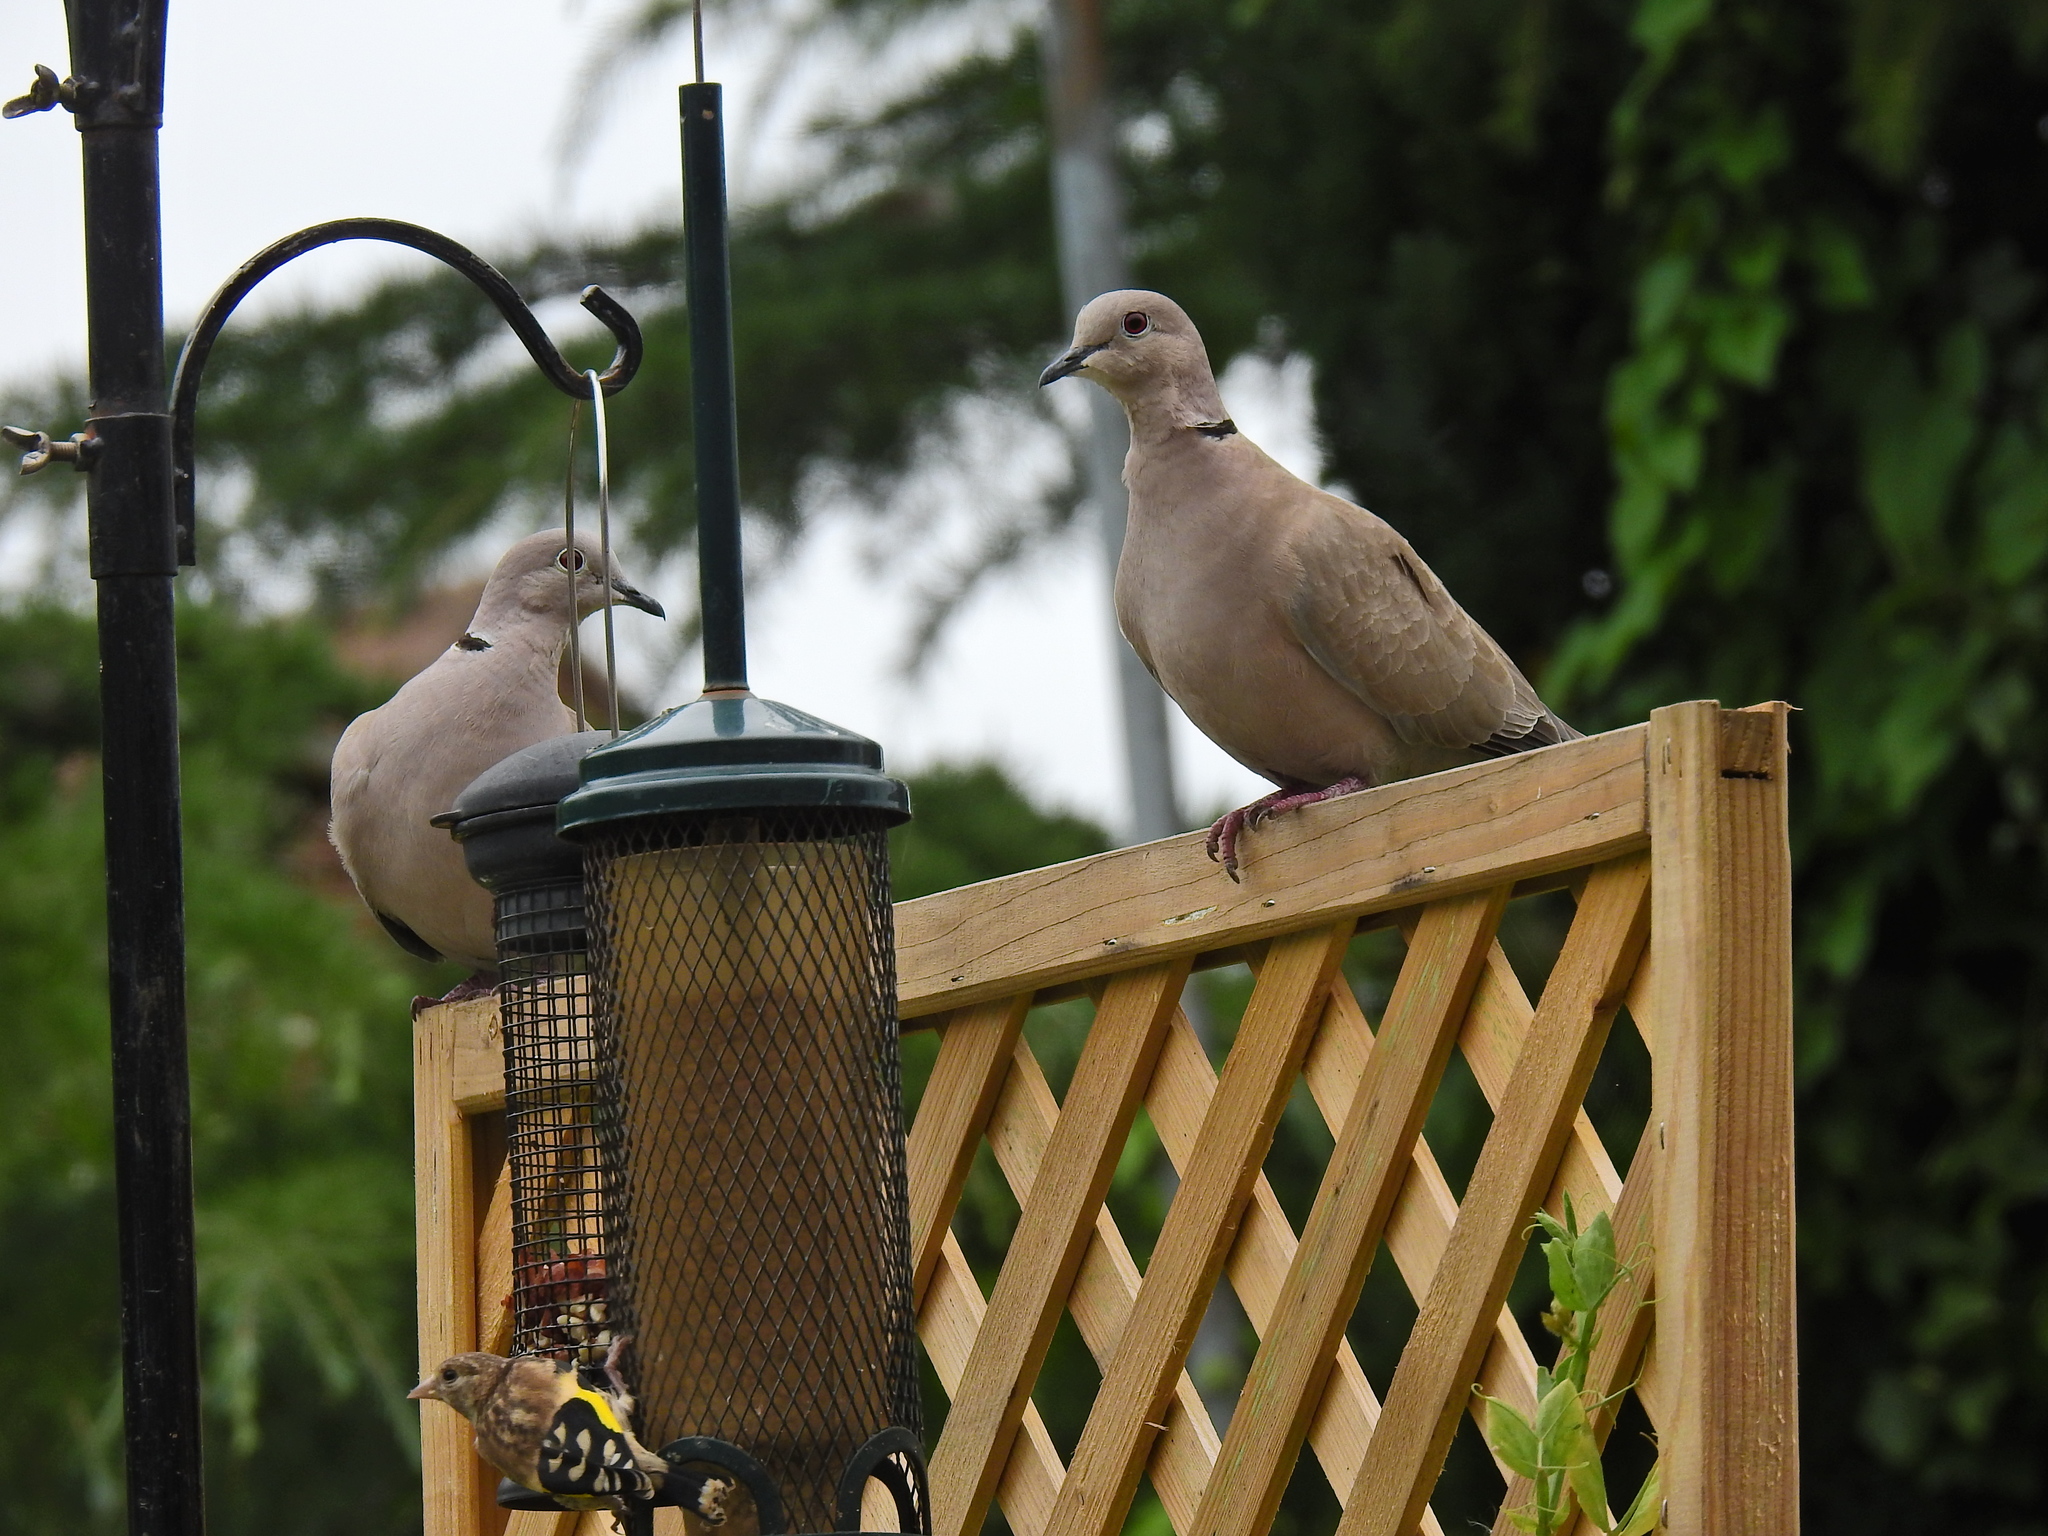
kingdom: Animalia
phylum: Chordata
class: Aves
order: Columbiformes
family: Columbidae
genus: Streptopelia
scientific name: Streptopelia decaocto
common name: Eurasian collared dove
